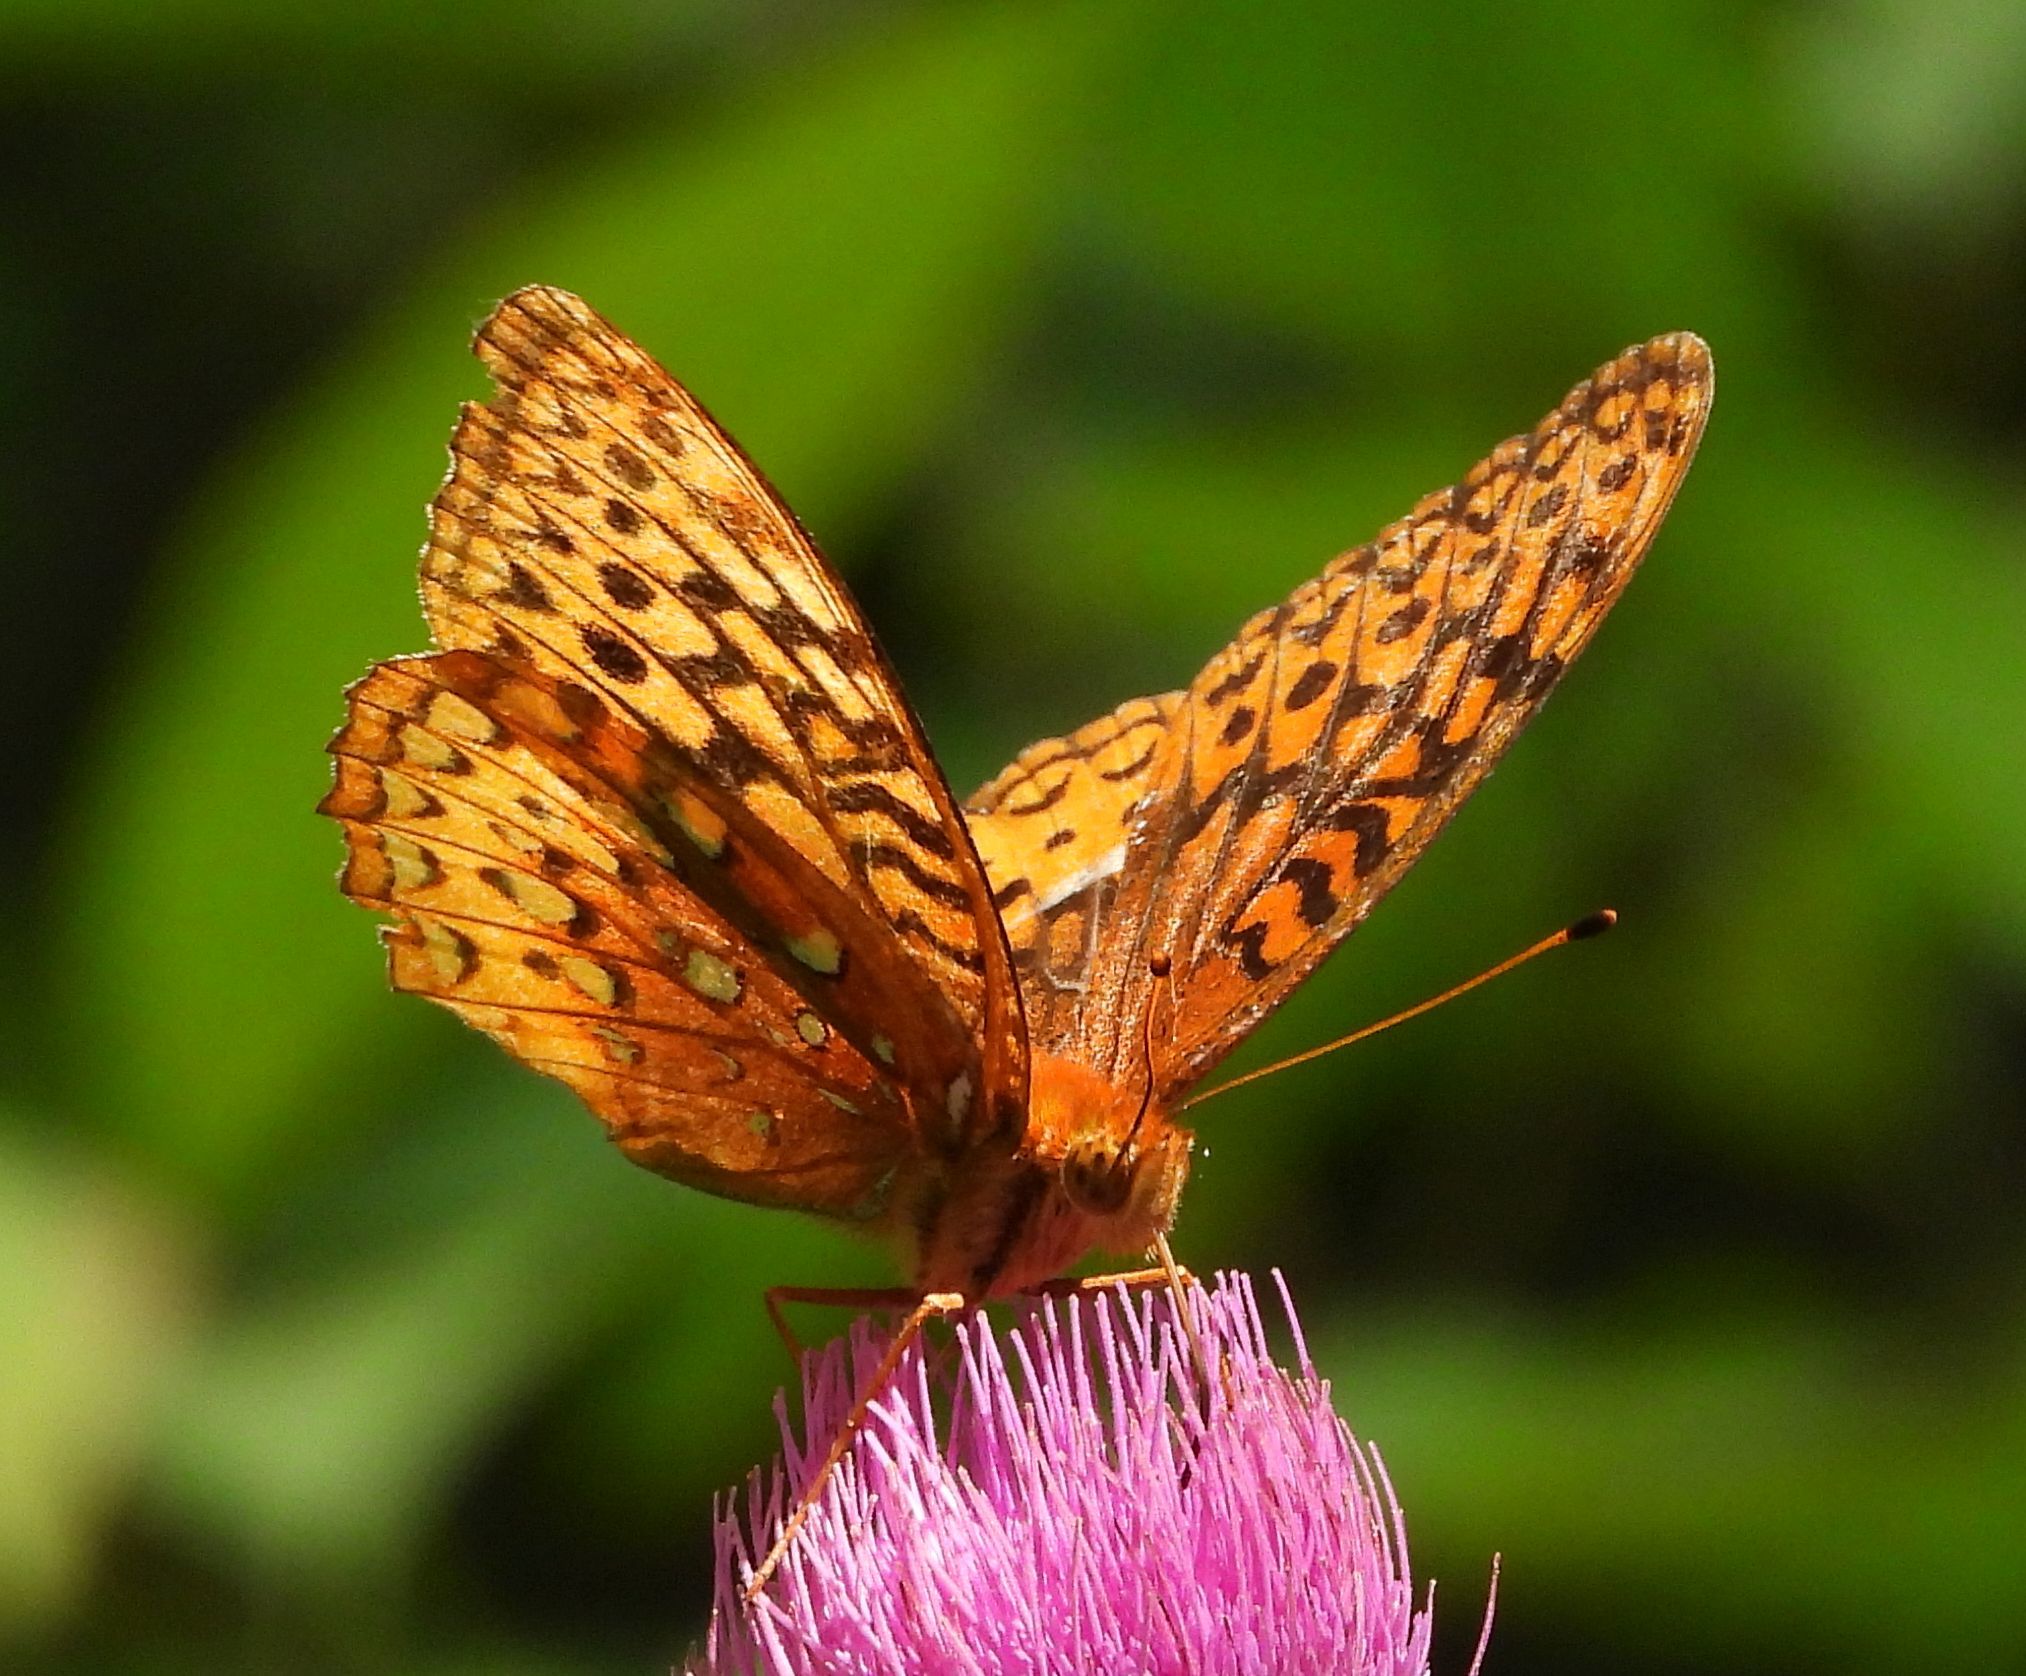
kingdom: Animalia
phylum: Arthropoda
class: Insecta
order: Lepidoptera
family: Nymphalidae
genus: Speyeria
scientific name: Speyeria cybele
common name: Great spangled fritillary
